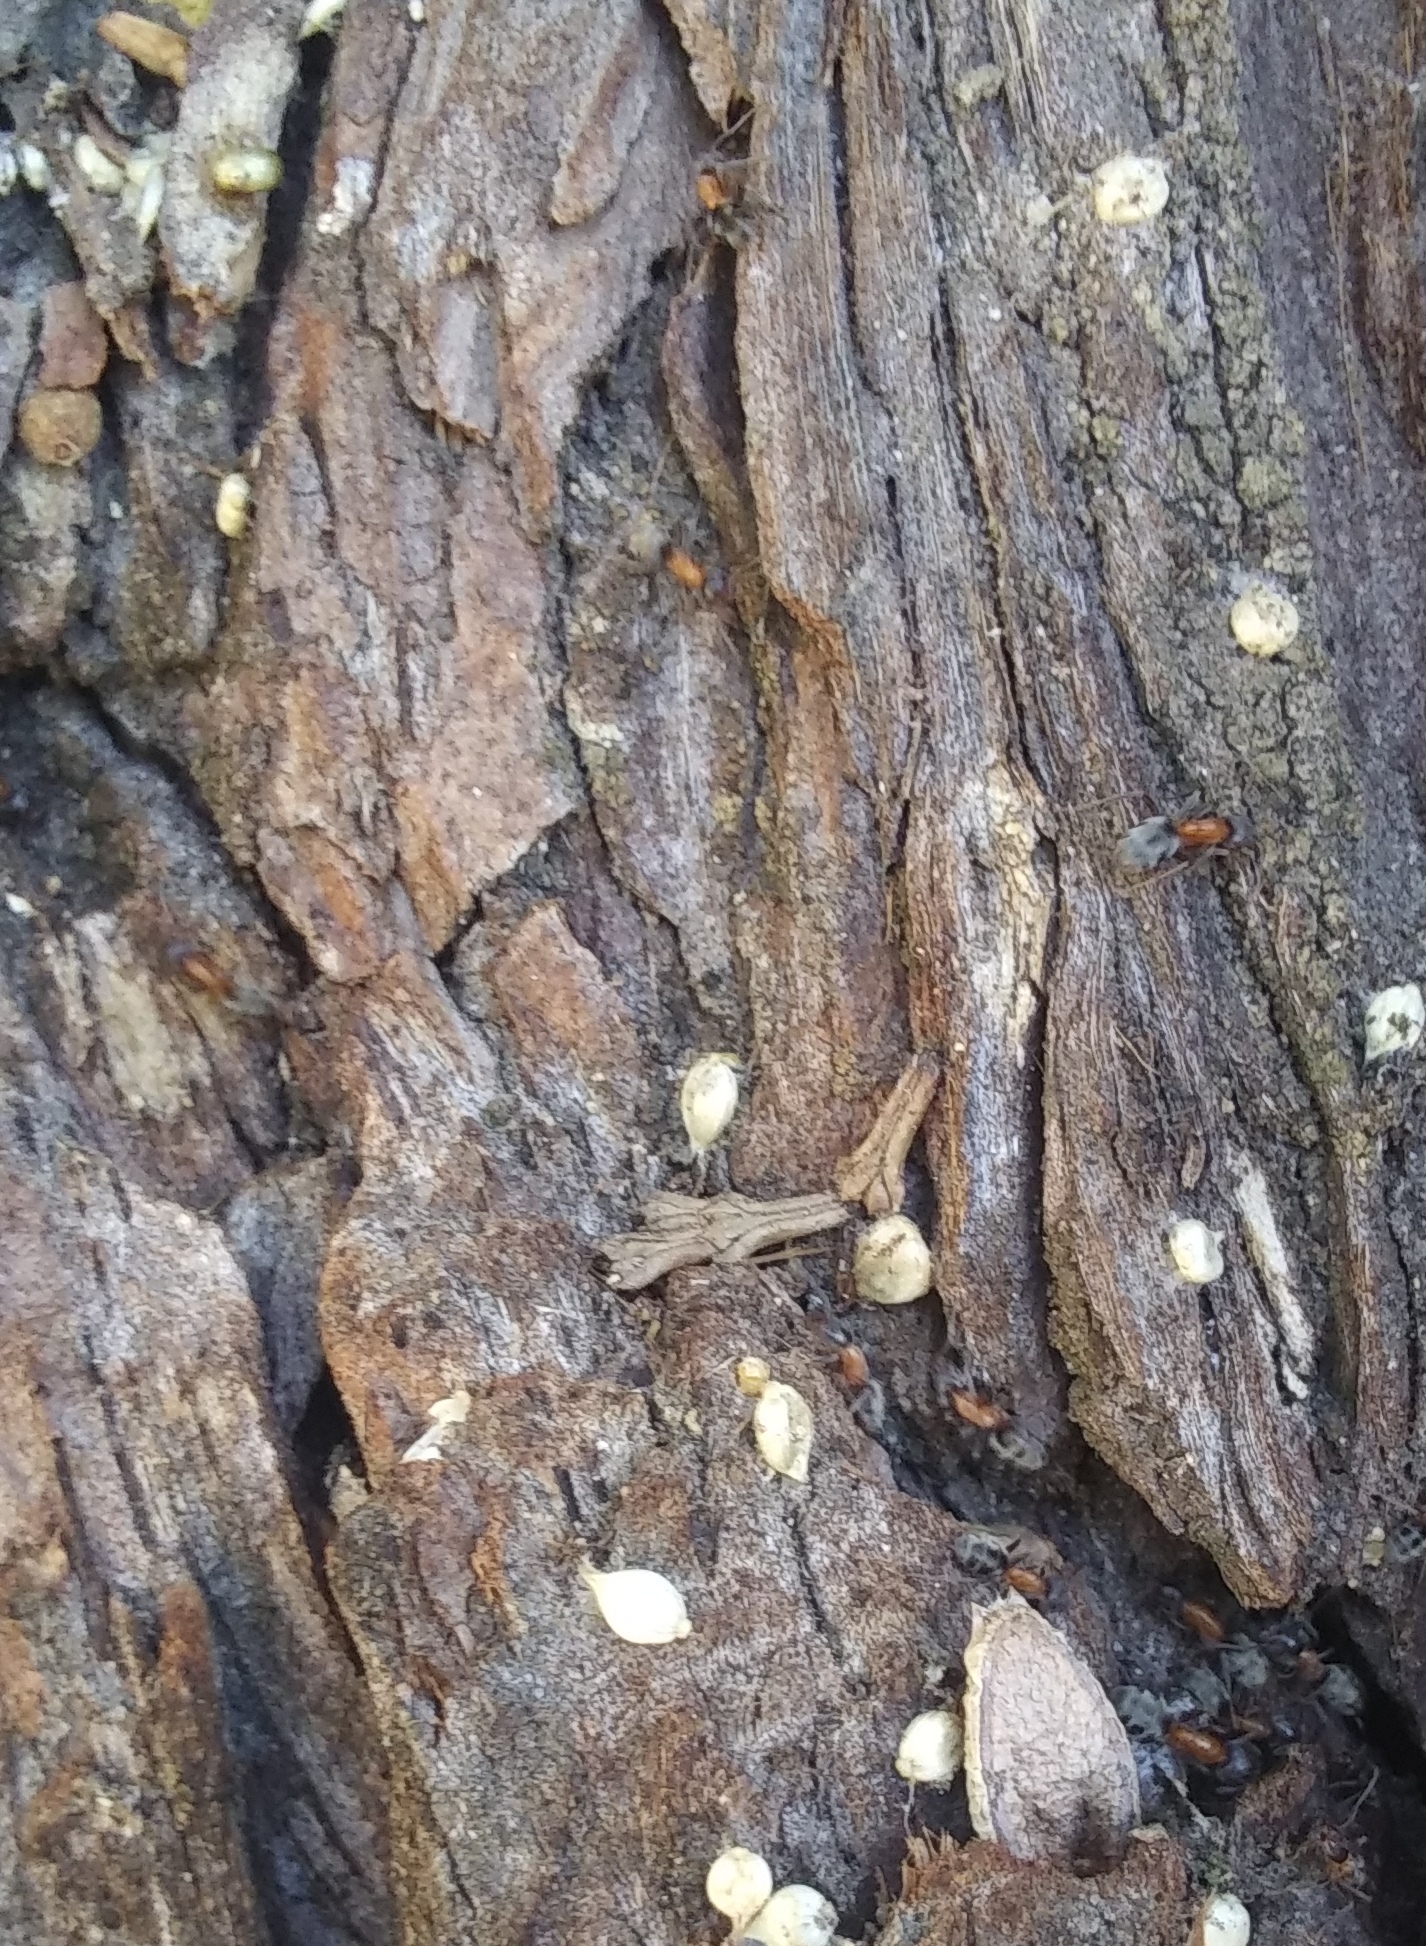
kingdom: Animalia
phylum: Arthropoda
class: Insecta
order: Hymenoptera
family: Formicidae
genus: Liometopum
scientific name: Liometopum occidentale
